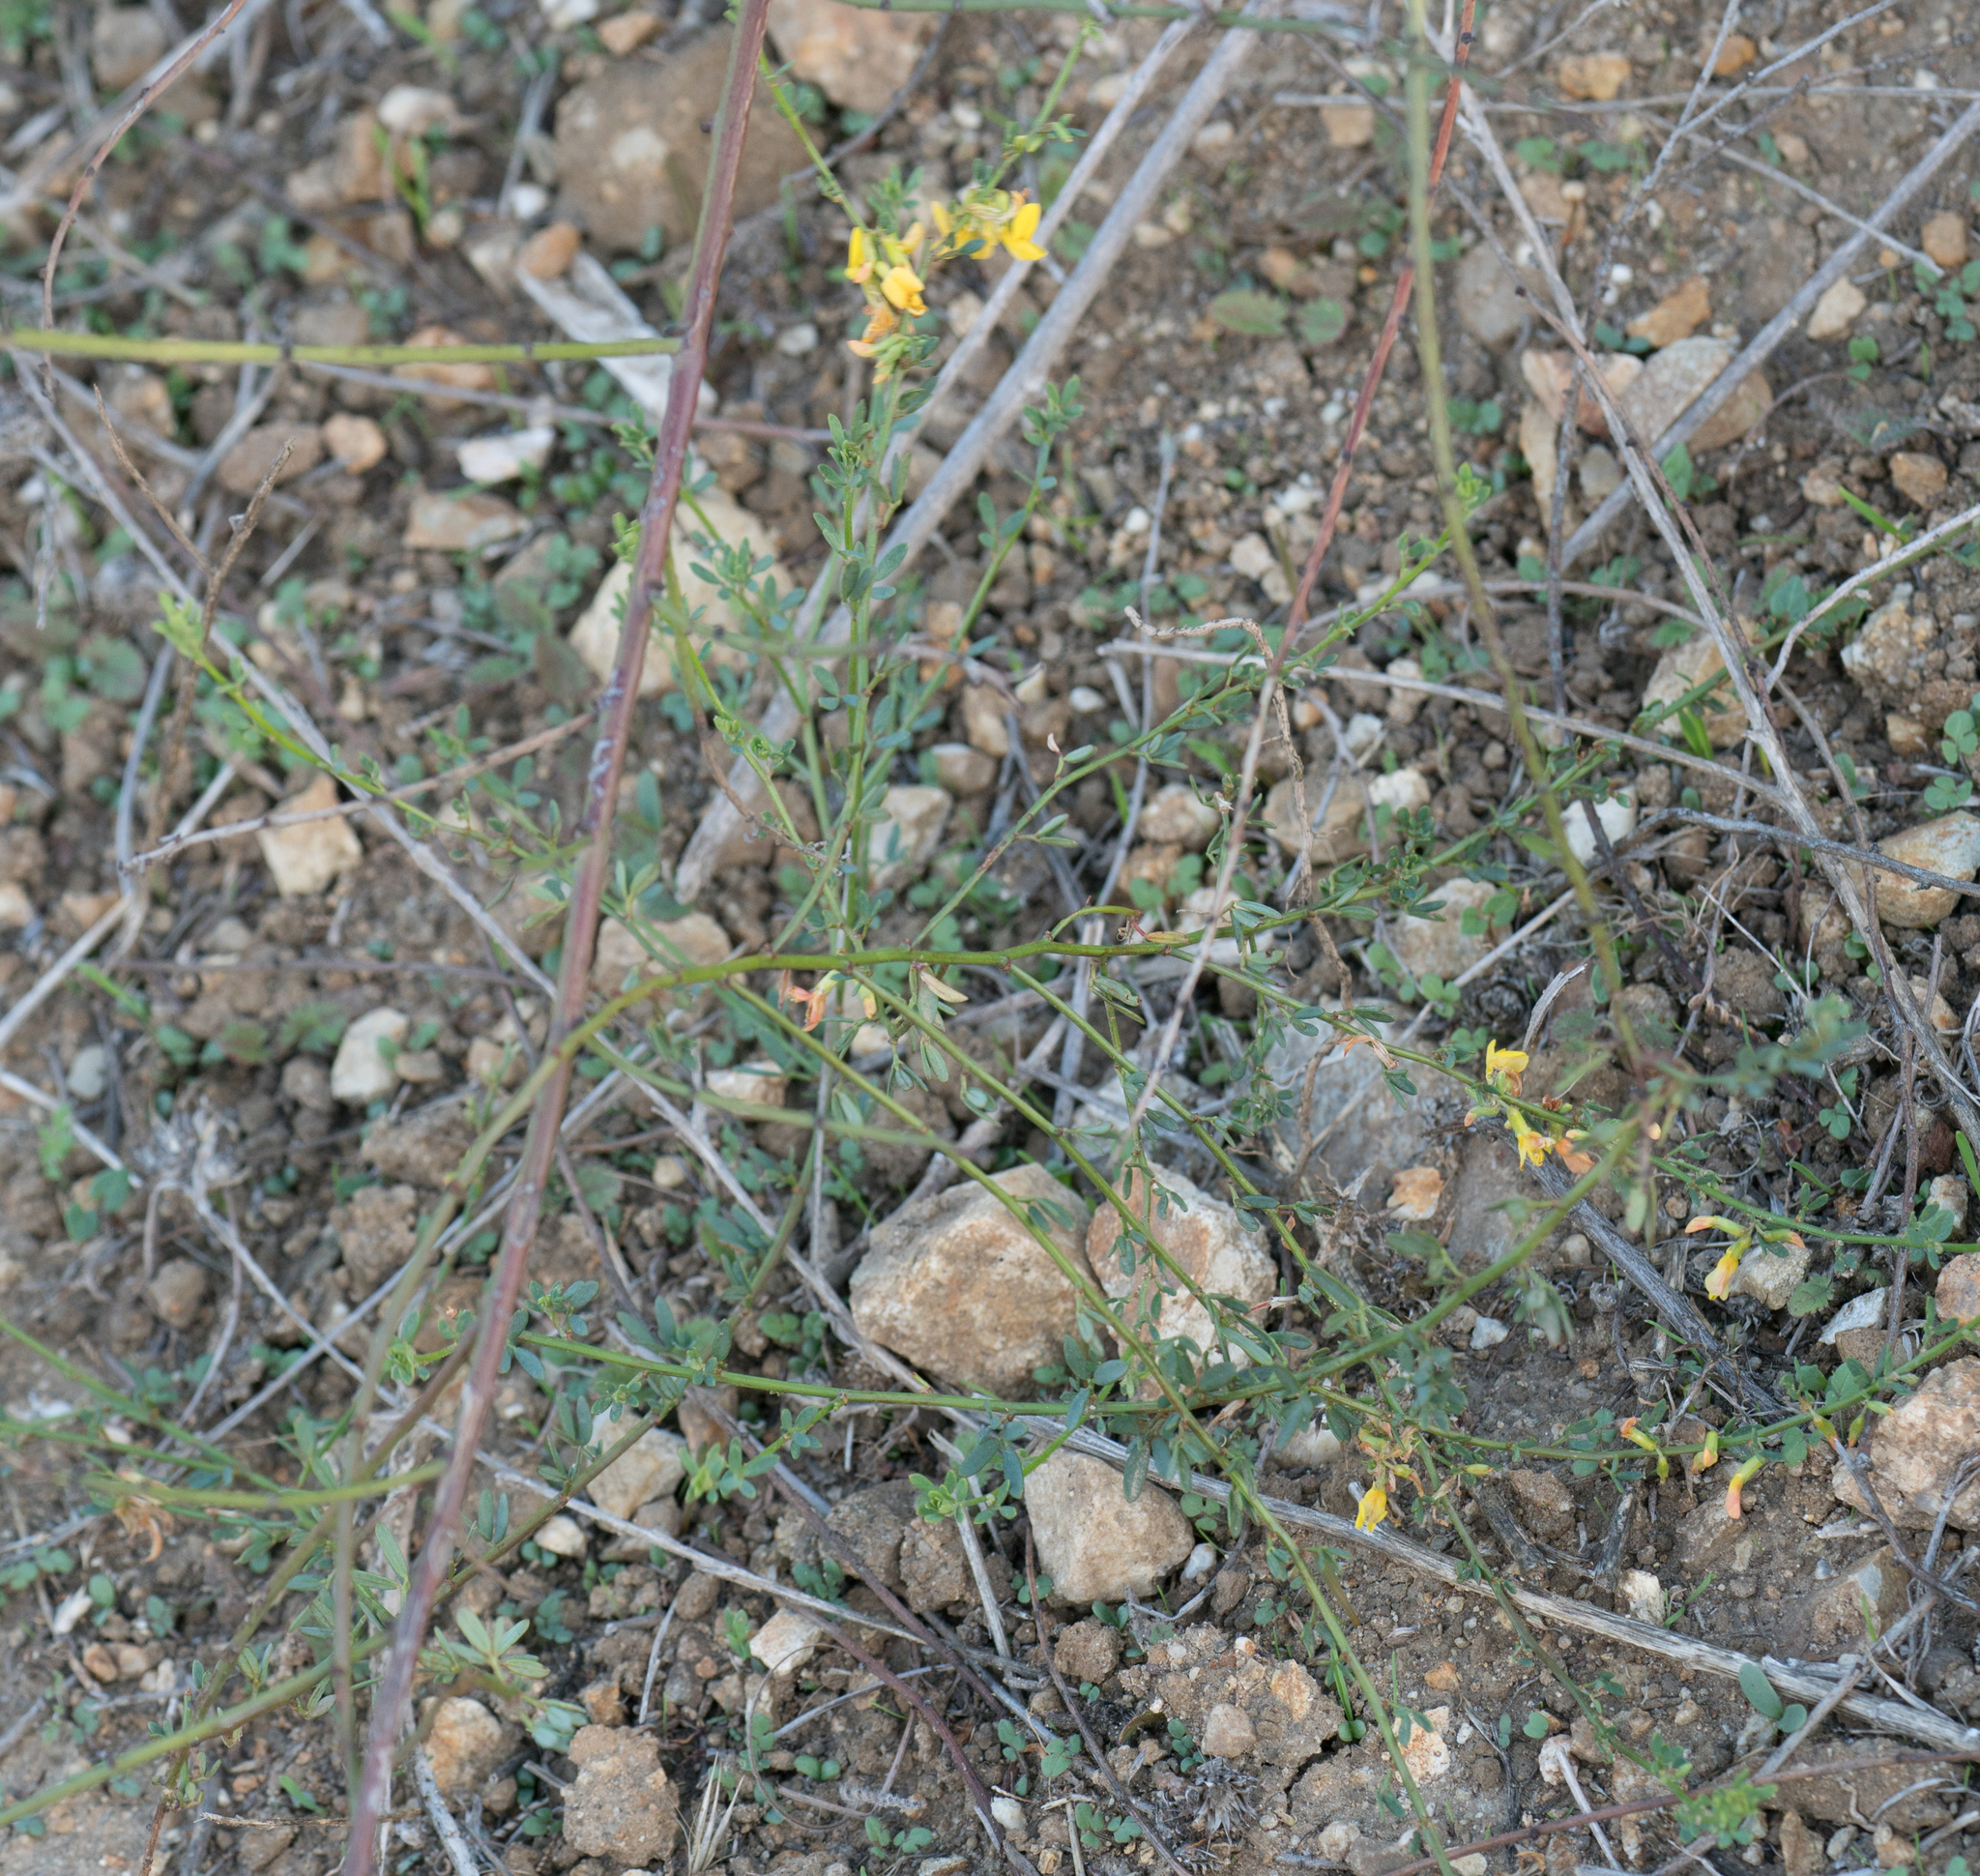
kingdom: Plantae
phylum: Tracheophyta
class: Magnoliopsida
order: Fabales
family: Fabaceae
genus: Acmispon
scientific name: Acmispon glaber
